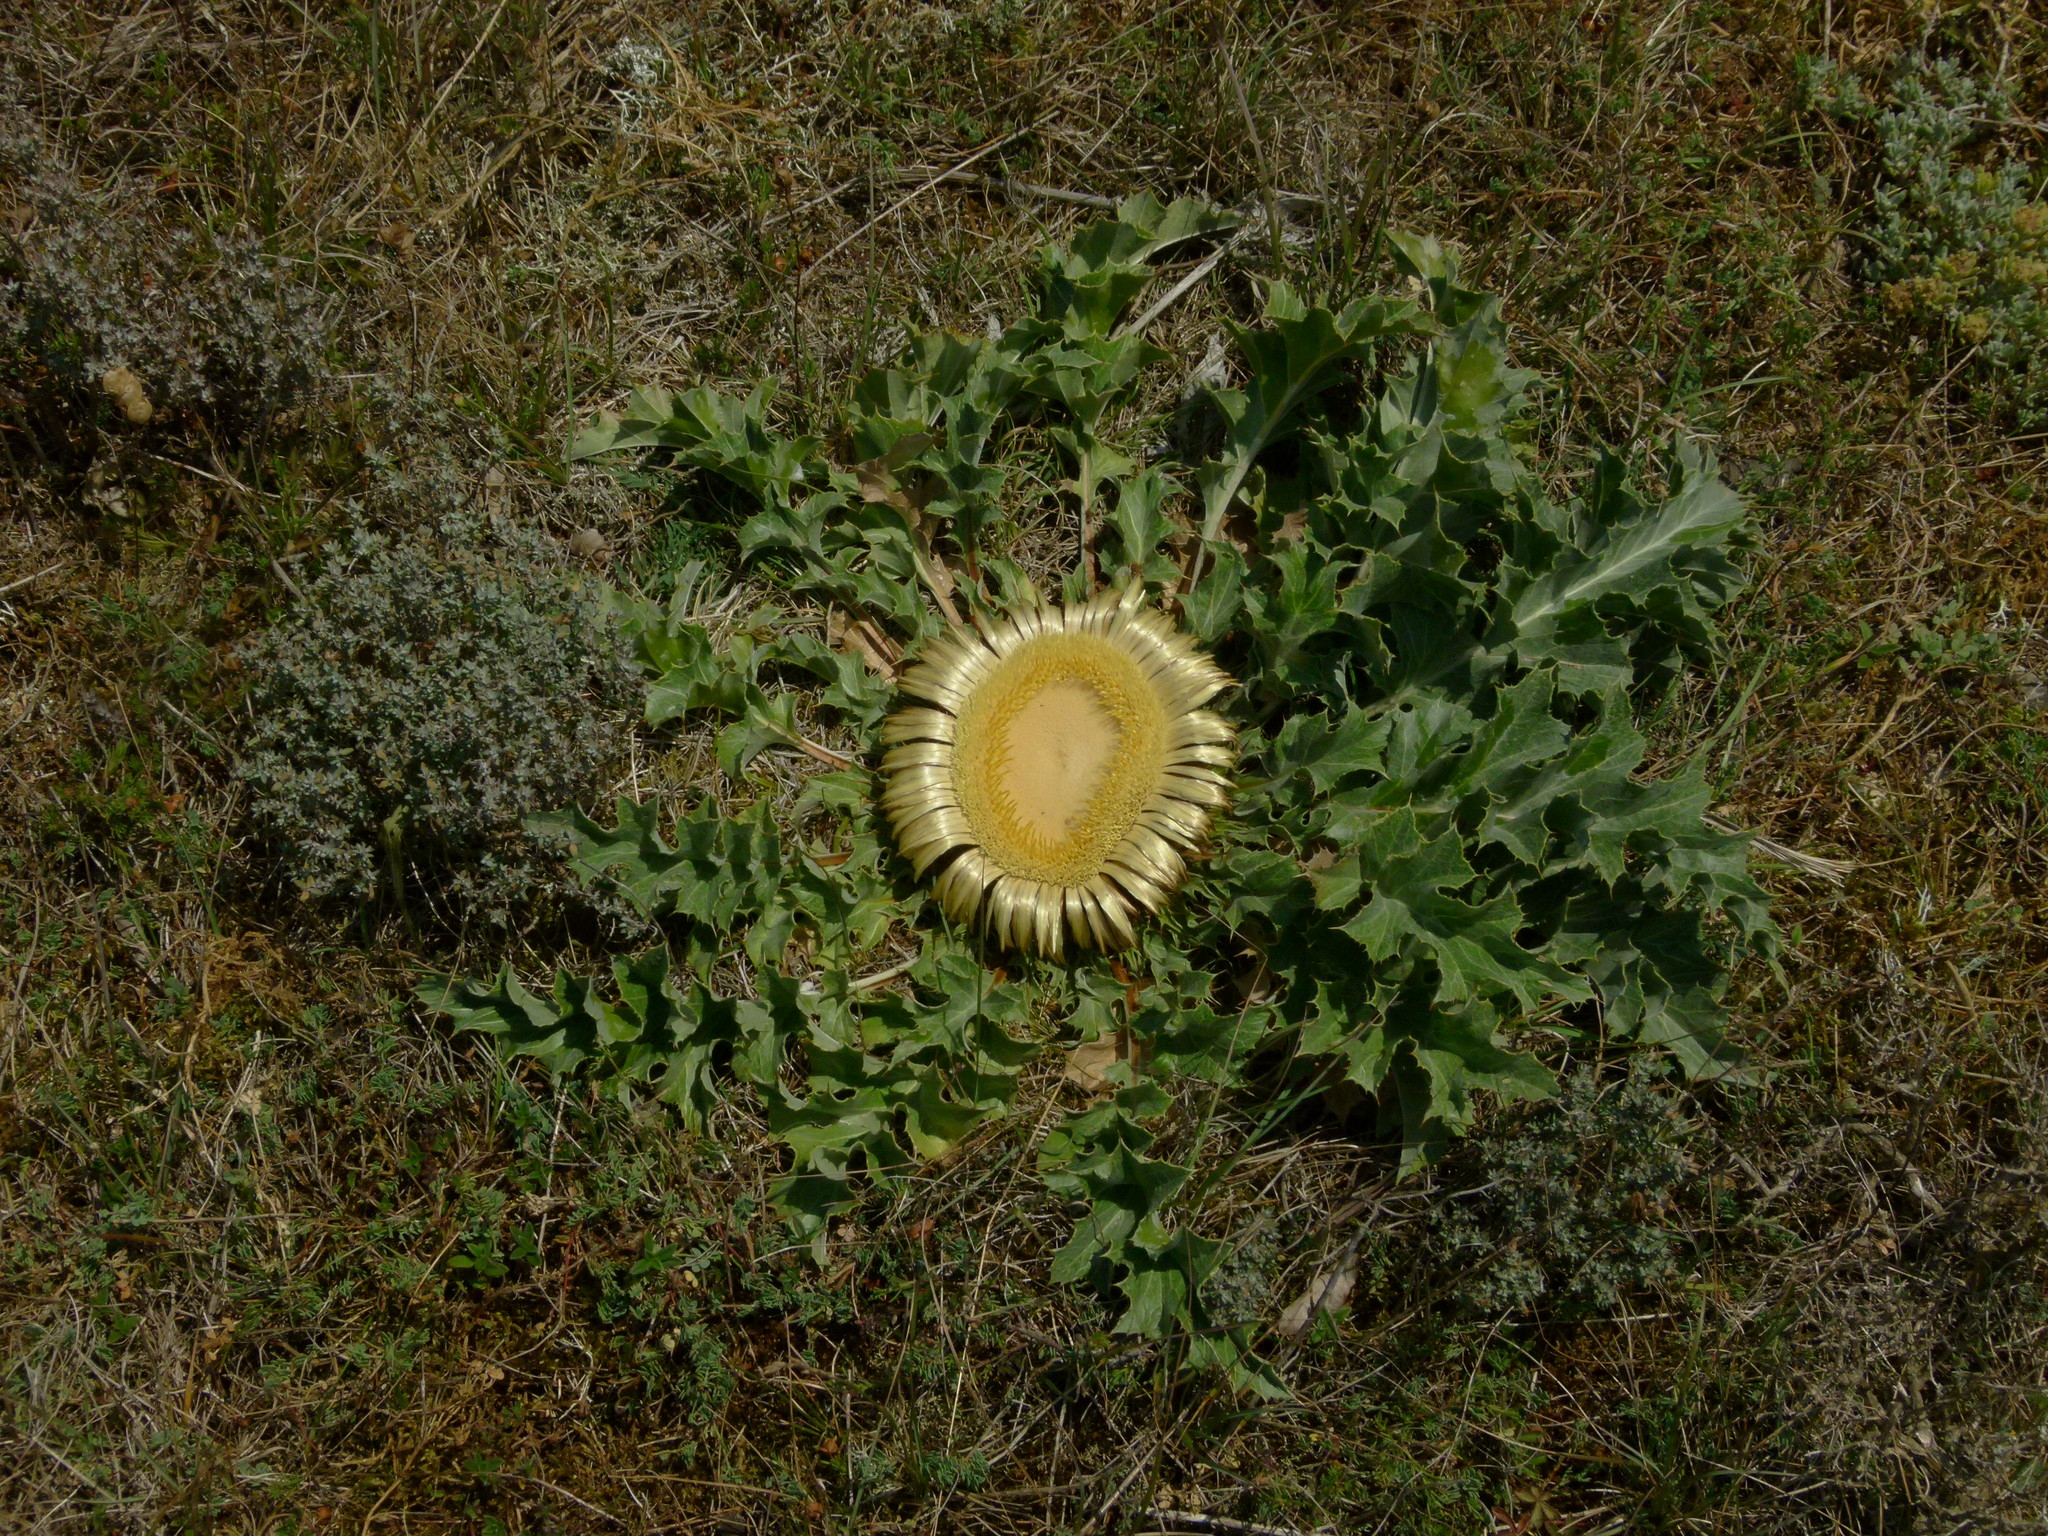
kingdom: Plantae
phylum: Tracheophyta
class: Magnoliopsida
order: Asterales
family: Asteraceae
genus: Carlina
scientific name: Carlina acanthifolia
